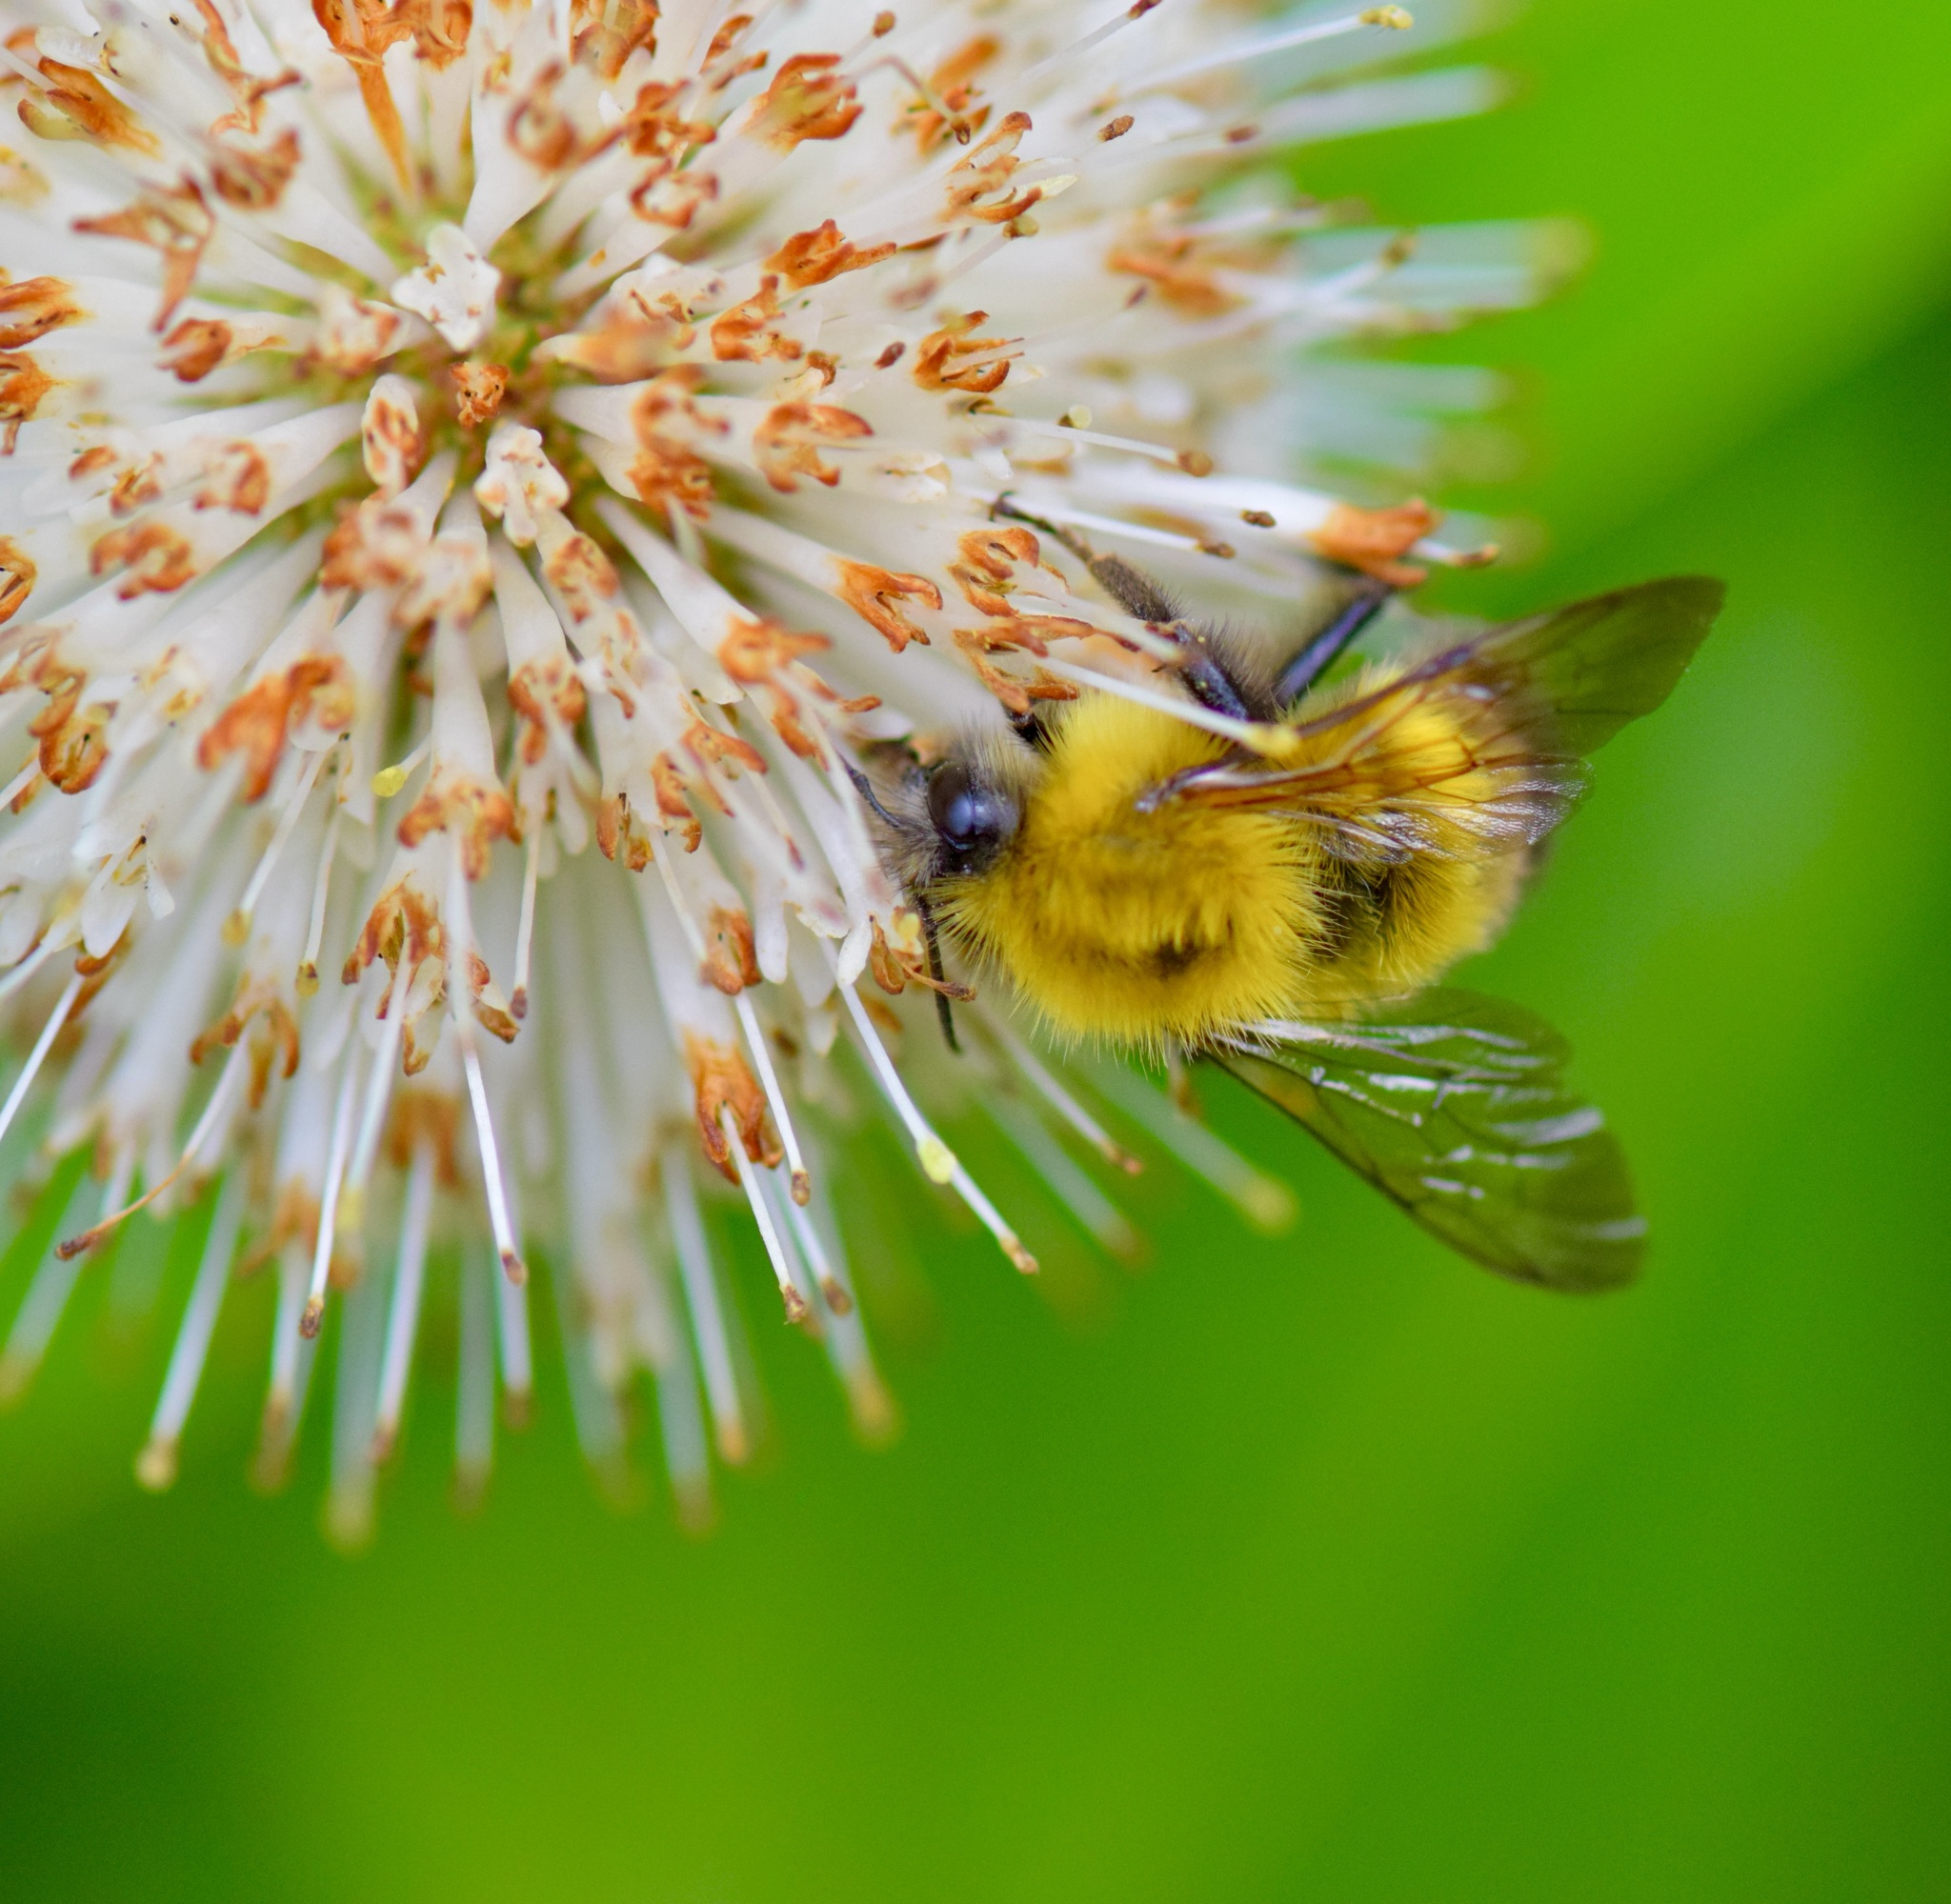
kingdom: Animalia
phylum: Arthropoda
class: Insecta
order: Hymenoptera
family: Apidae
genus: Bombus
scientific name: Bombus perplexus
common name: Confusing bumble bee
